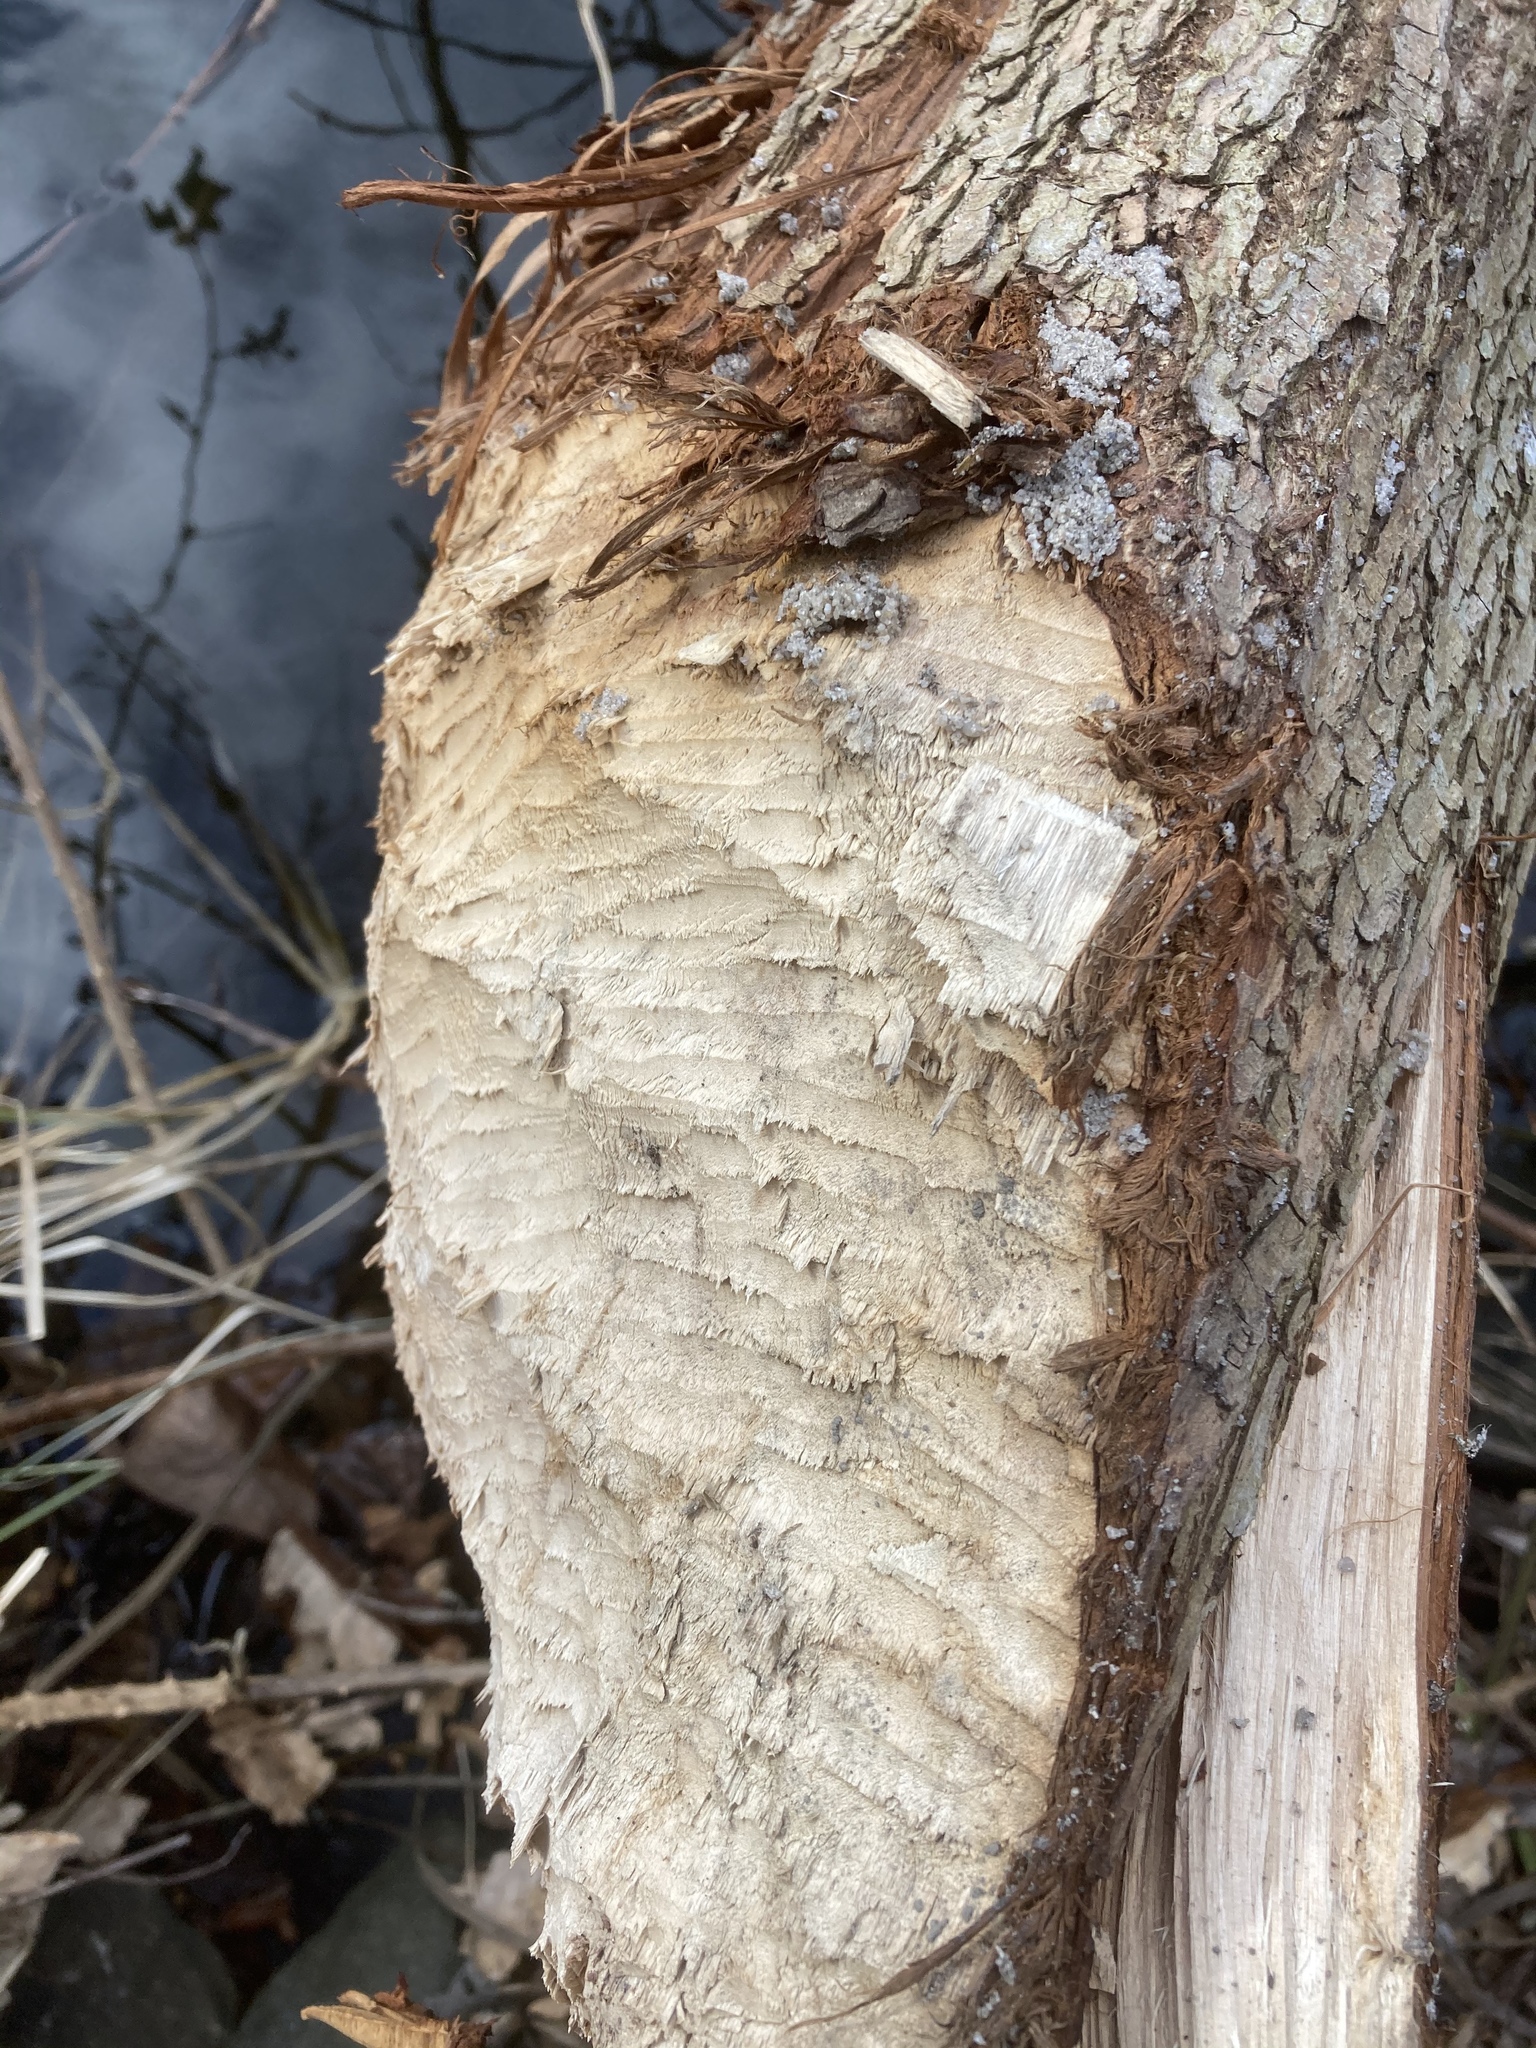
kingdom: Animalia
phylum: Chordata
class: Mammalia
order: Rodentia
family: Castoridae
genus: Castor
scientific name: Castor fiber
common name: Eurasian beaver
